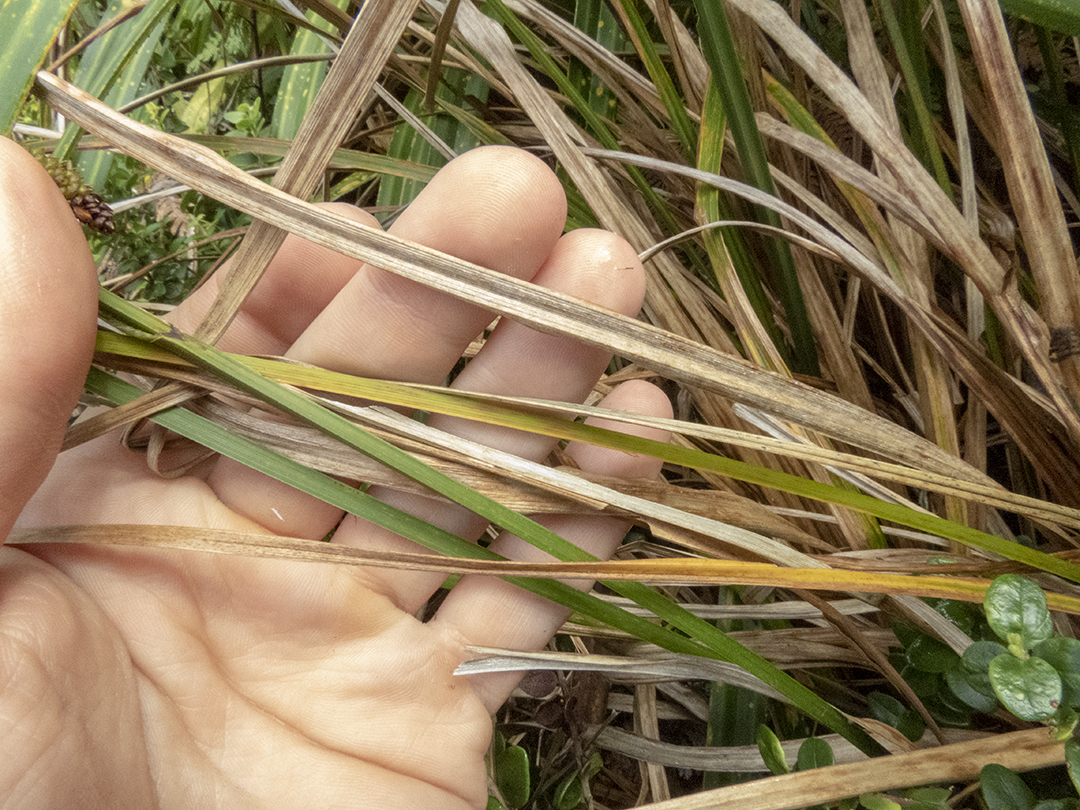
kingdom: Plantae
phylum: Tracheophyta
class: Liliopsida
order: Poales
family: Cyperaceae
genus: Carex
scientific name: Carex geminata
